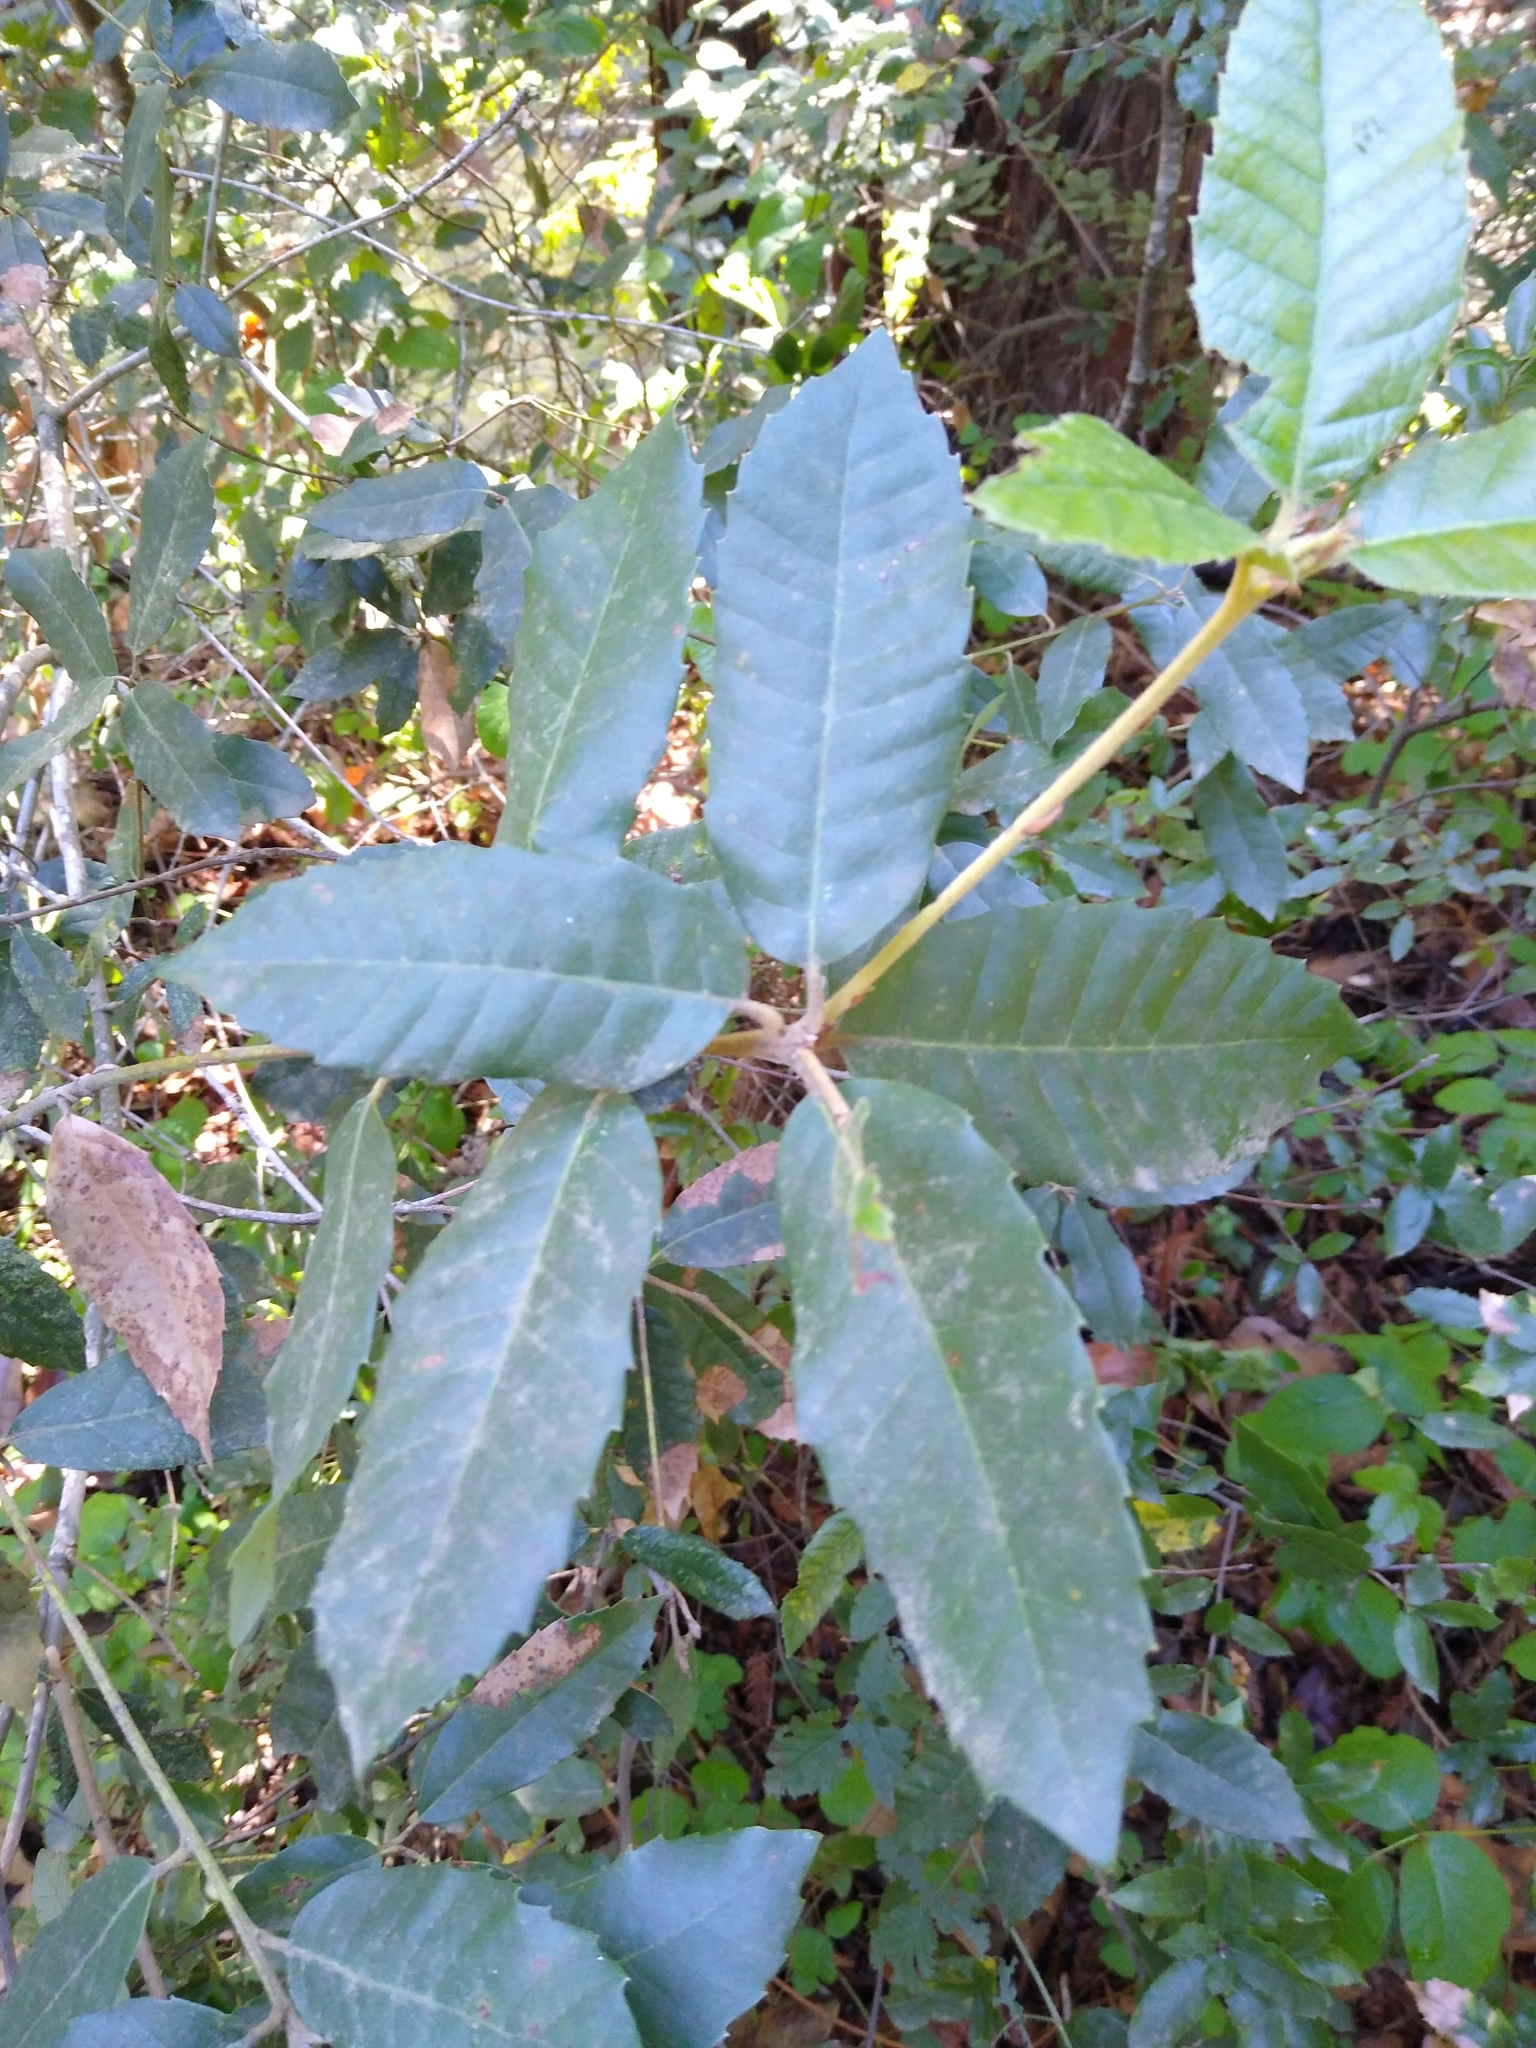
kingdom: Plantae
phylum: Tracheophyta
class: Magnoliopsida
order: Fagales
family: Fagaceae
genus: Notholithocarpus
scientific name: Notholithocarpus densiflorus
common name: Tan bark oak
